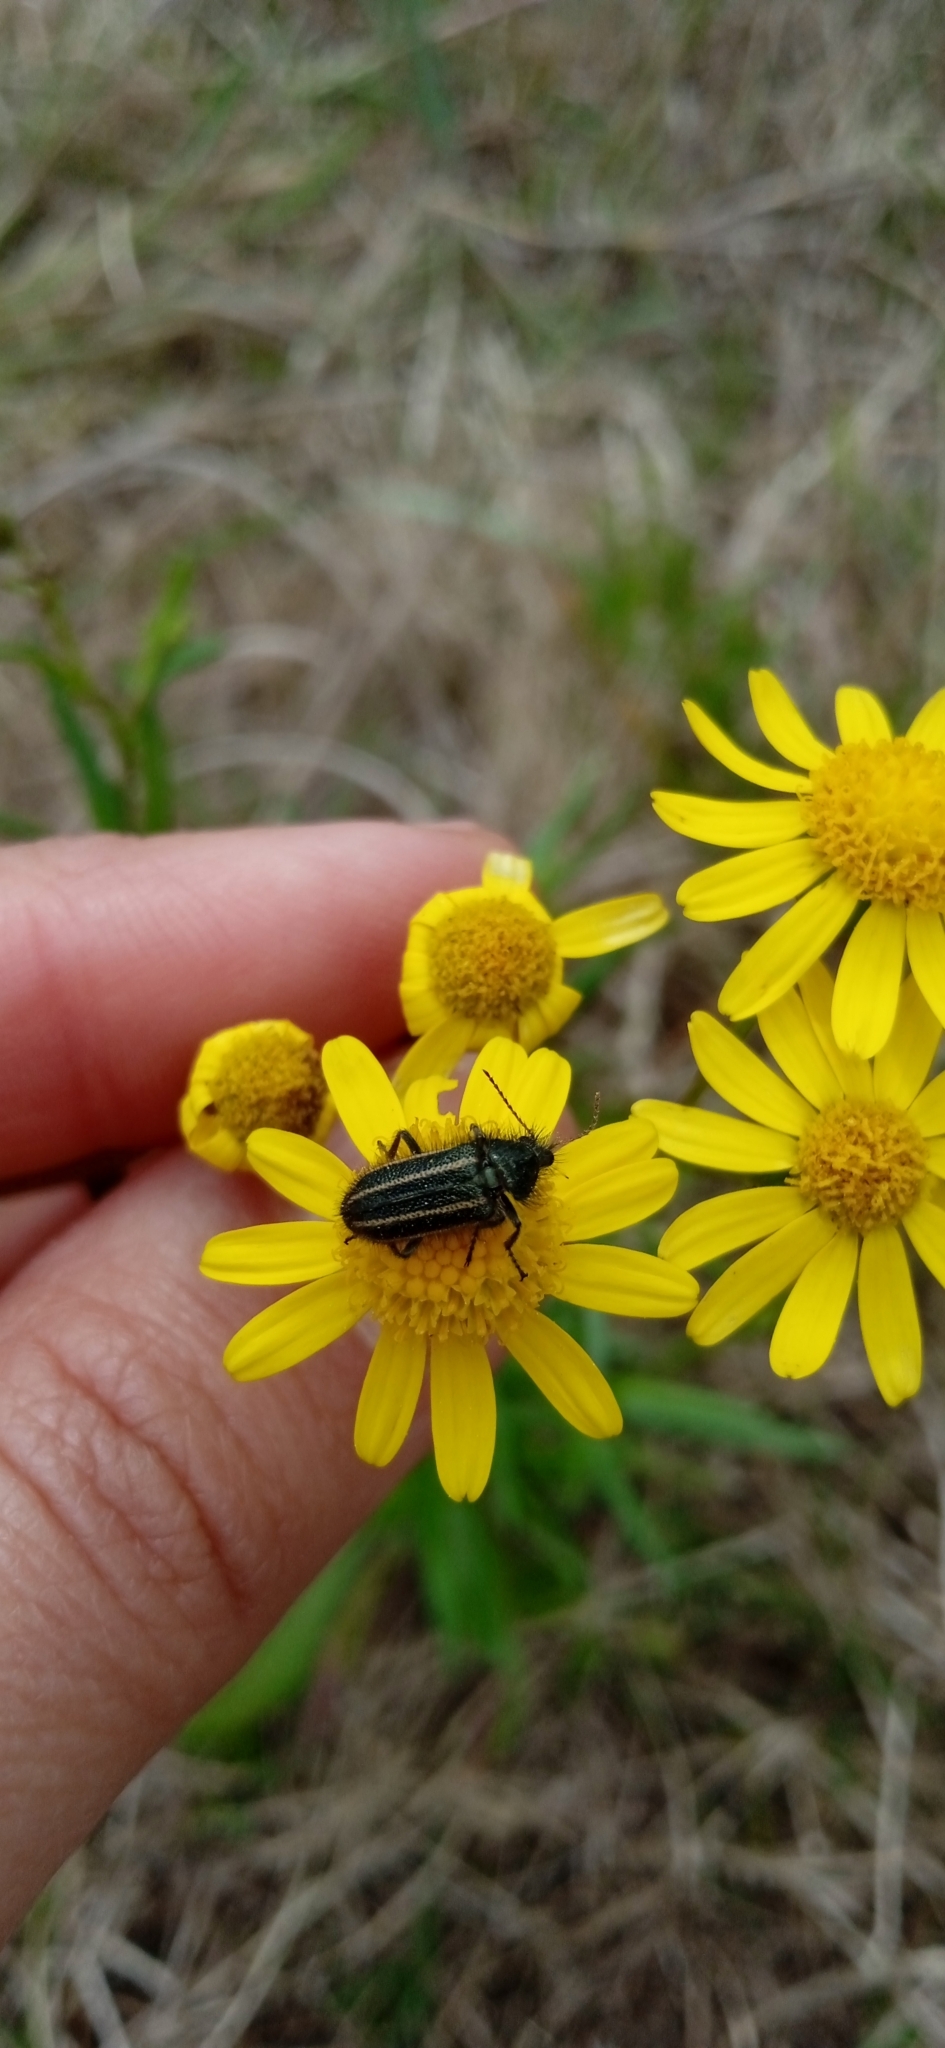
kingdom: Animalia
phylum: Arthropoda
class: Insecta
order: Coleoptera
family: Melyridae
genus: Astylus
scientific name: Astylus
